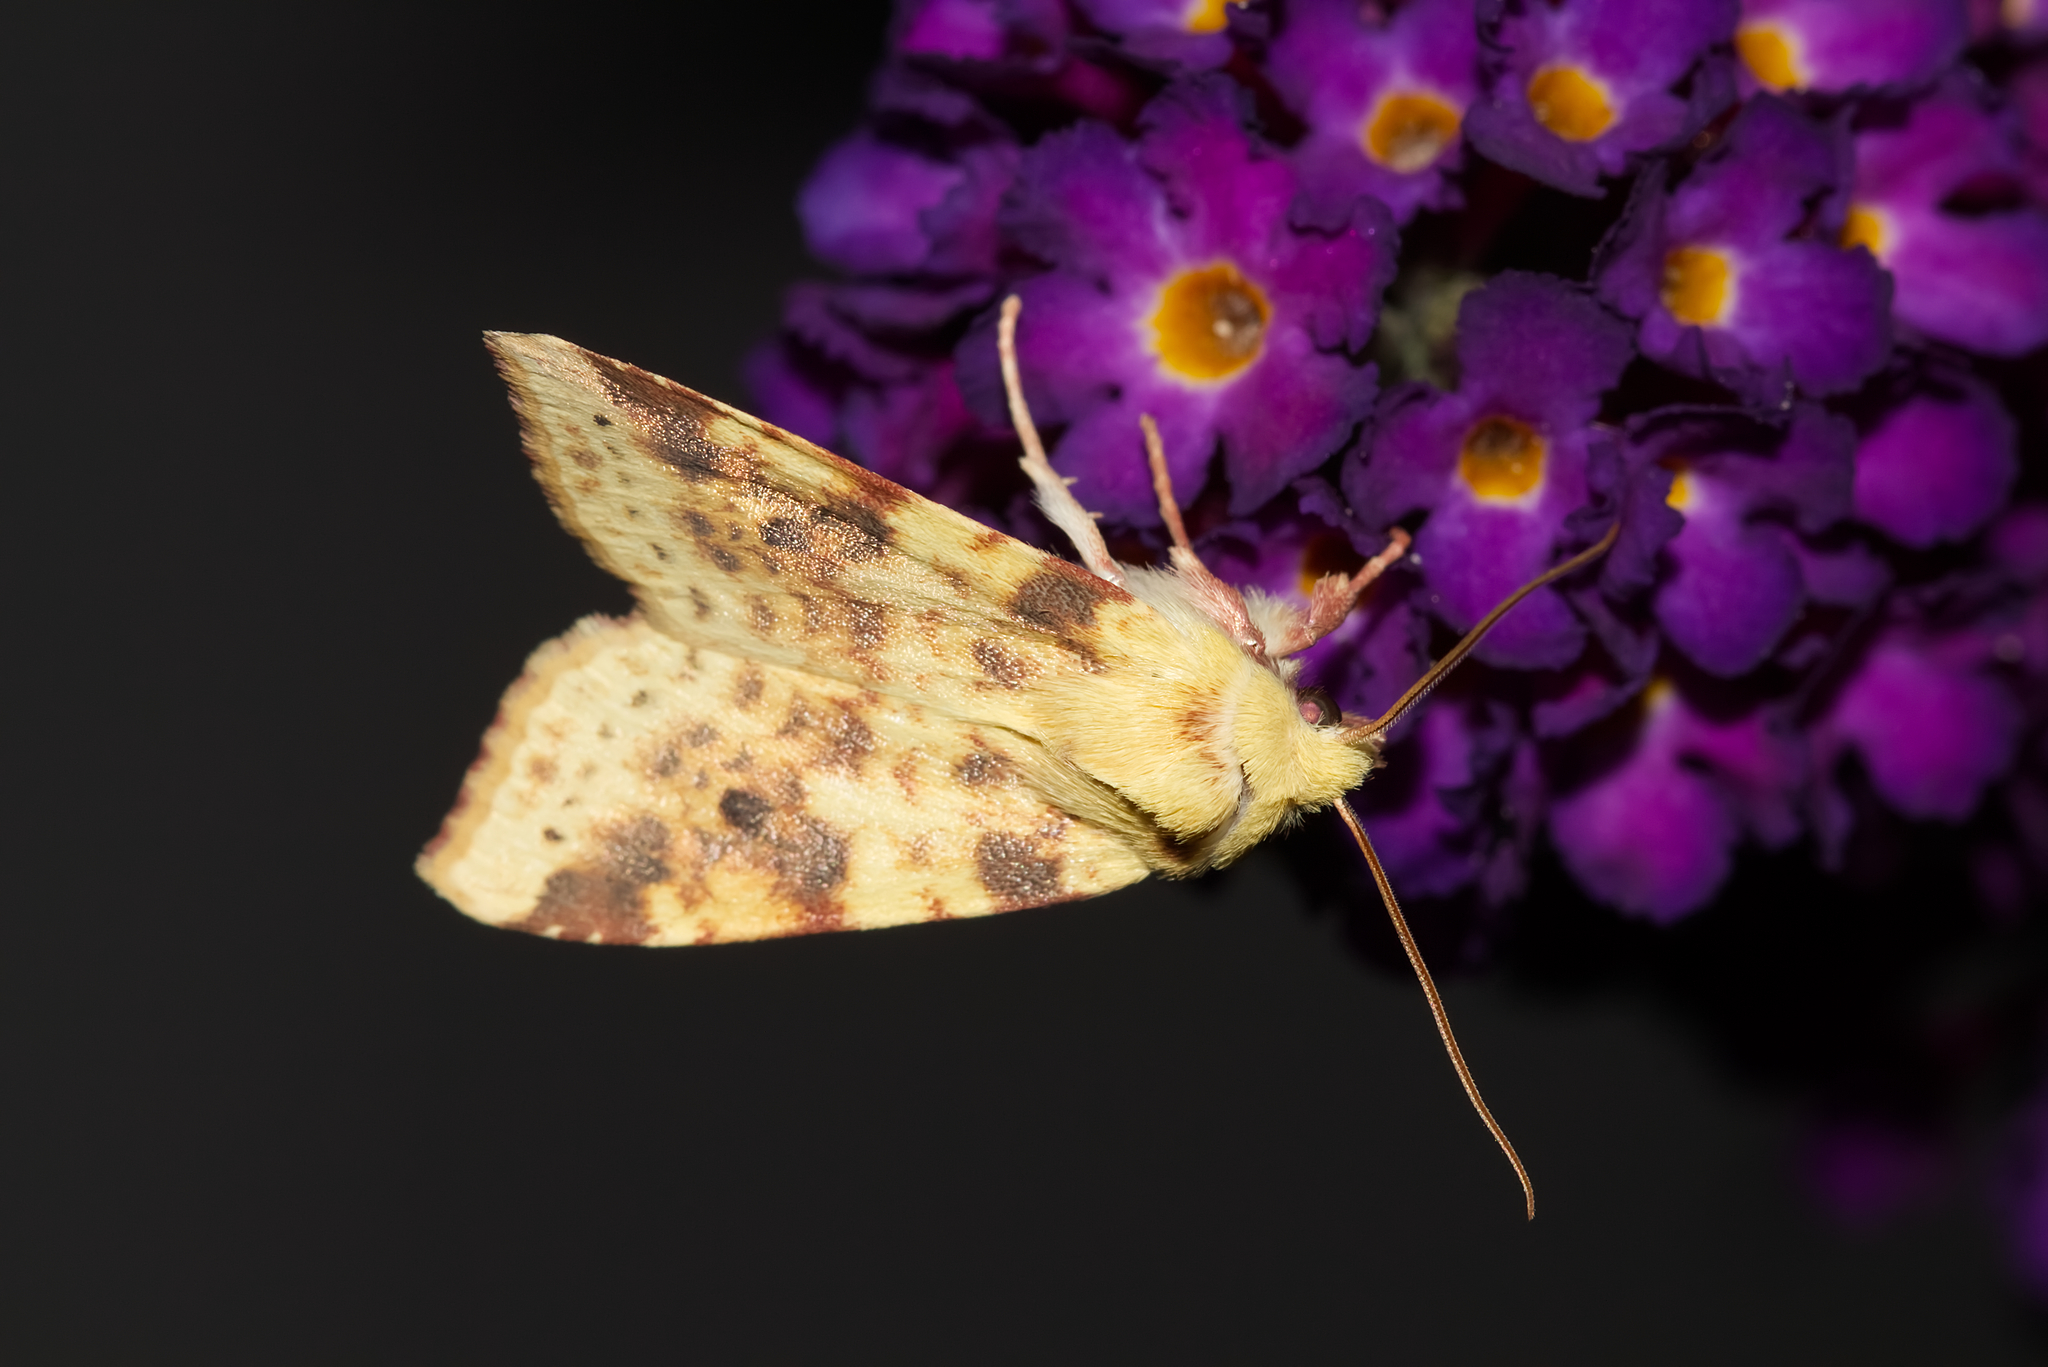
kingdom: Animalia
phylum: Arthropoda
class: Insecta
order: Lepidoptera
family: Noctuidae
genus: Xanthia
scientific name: Xanthia icteritia
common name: The sallow
